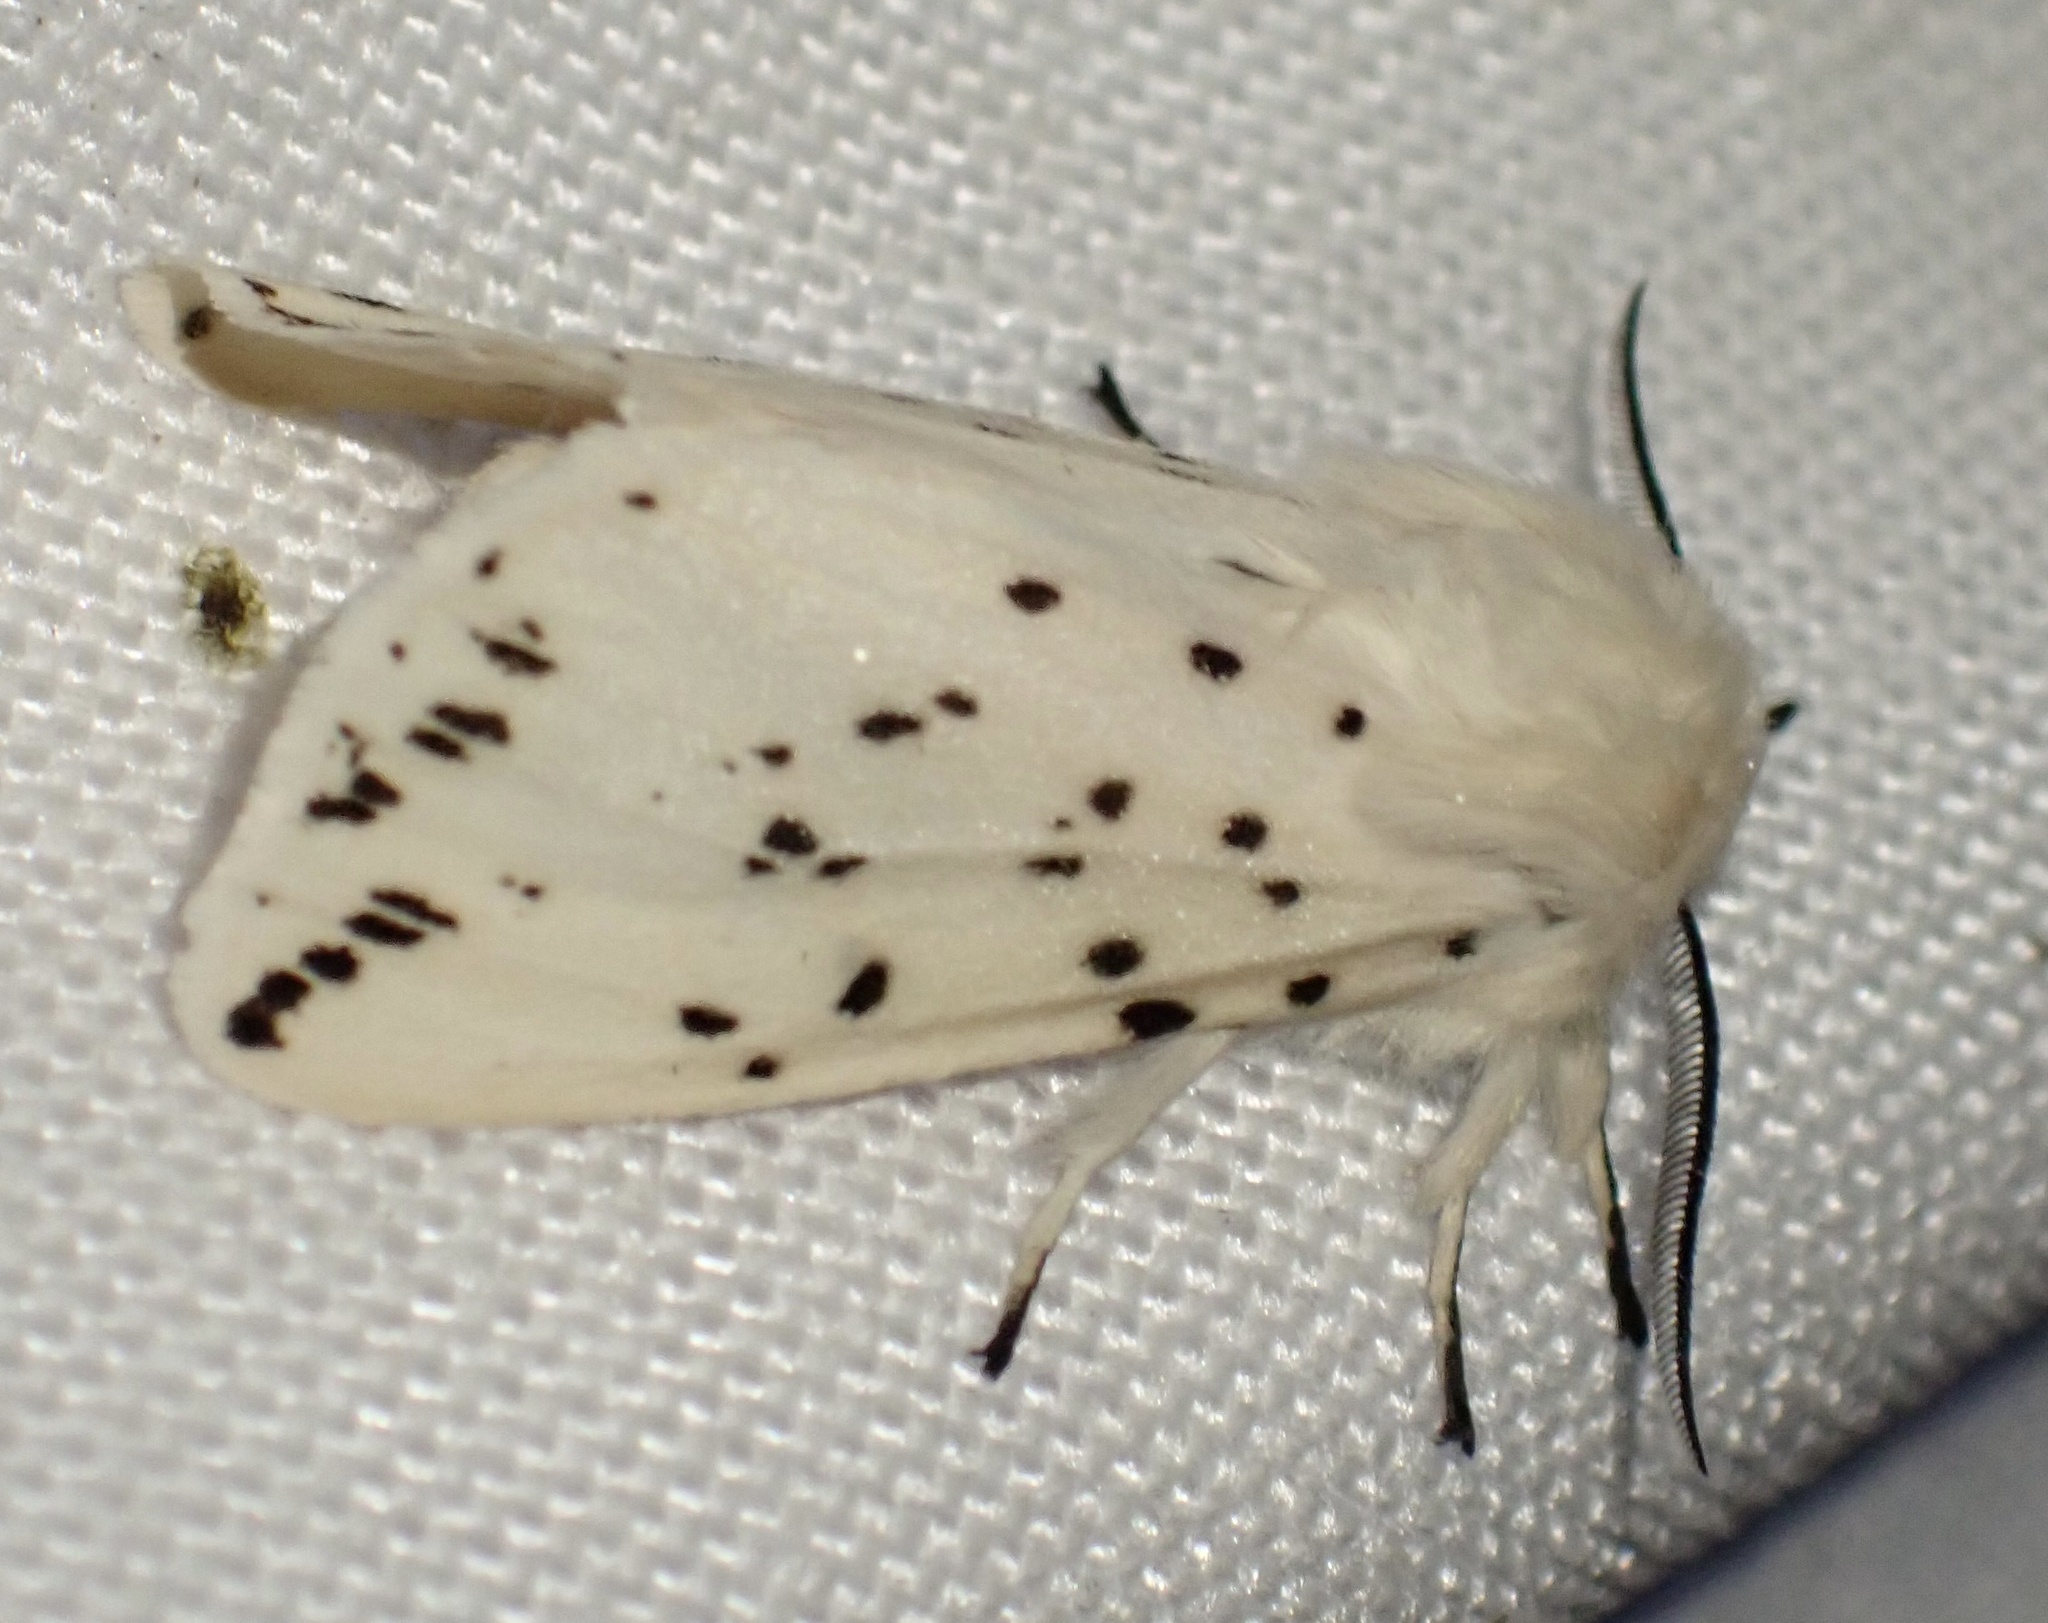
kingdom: Animalia
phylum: Arthropoda
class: Insecta
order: Lepidoptera
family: Erebidae
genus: Spilosoma
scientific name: Spilosoma lubricipeda
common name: White ermine
